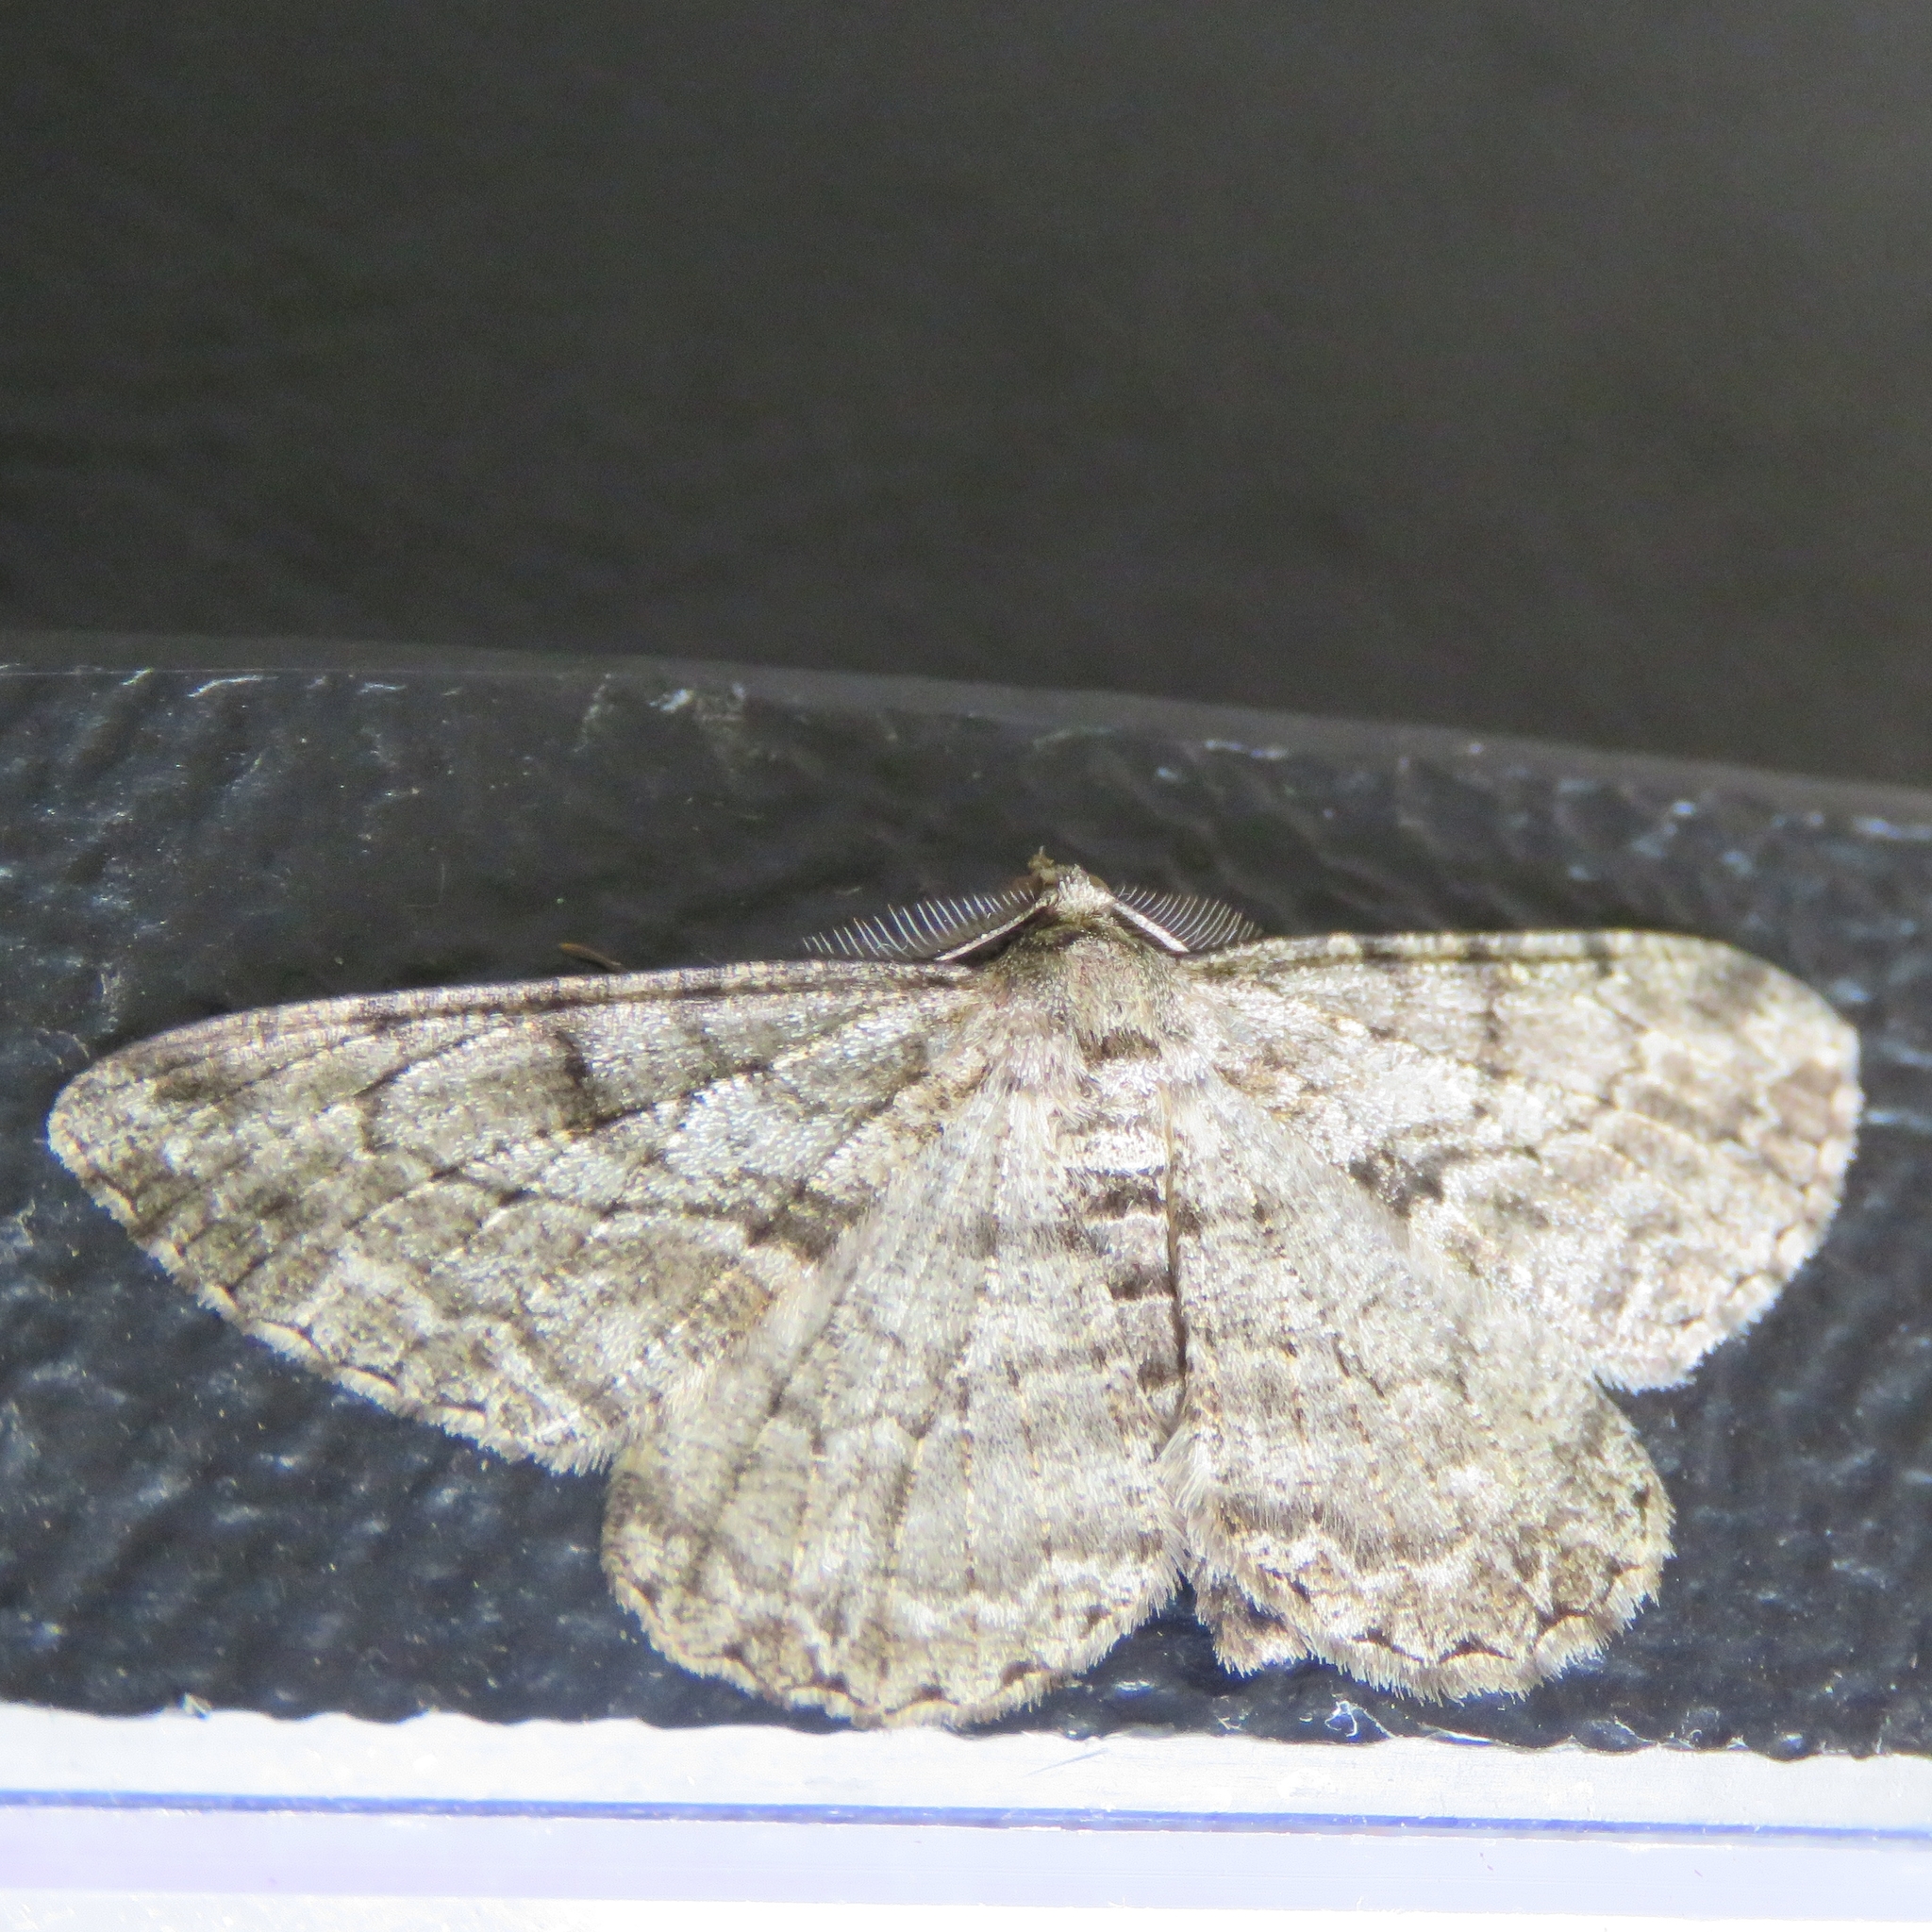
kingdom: Animalia
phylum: Arthropoda
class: Insecta
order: Lepidoptera
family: Geometridae
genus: Peribatodes
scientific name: Peribatodes rhomboidaria
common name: Willow beauty
